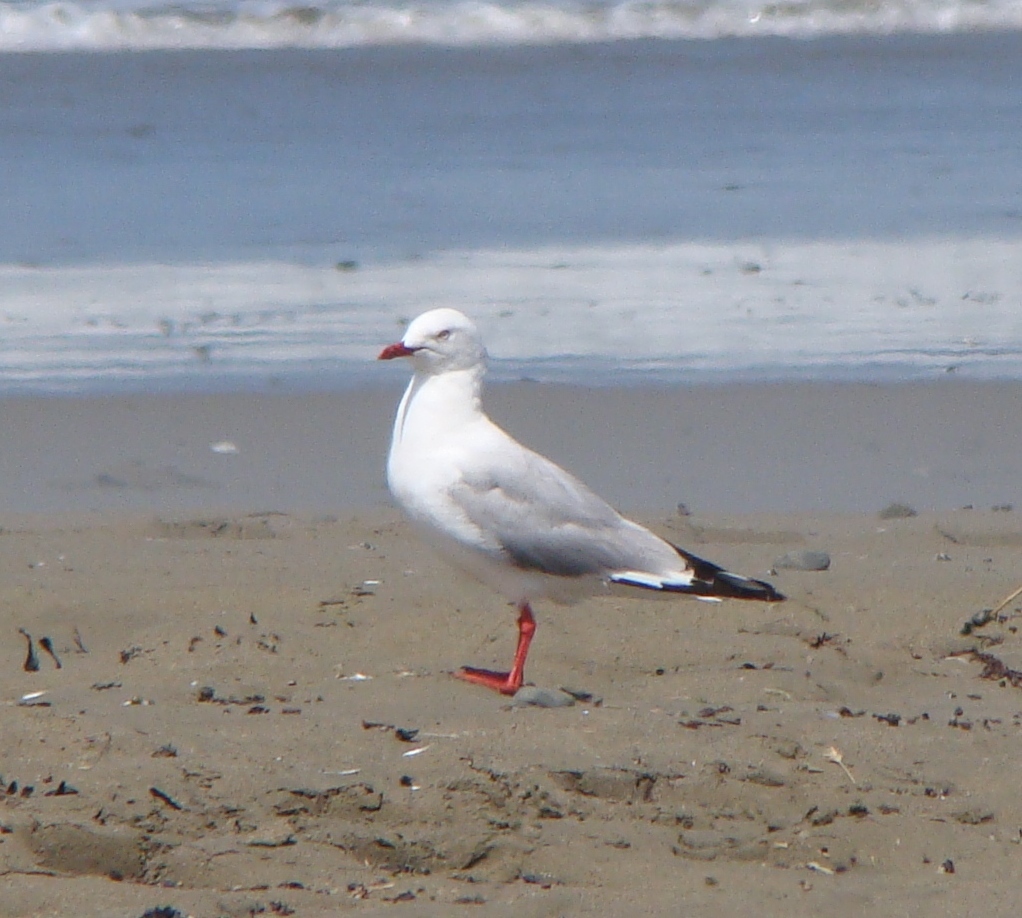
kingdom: Animalia
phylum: Chordata
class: Aves
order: Charadriiformes
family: Laridae
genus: Chroicocephalus
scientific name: Chroicocephalus novaehollandiae
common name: Silver gull
